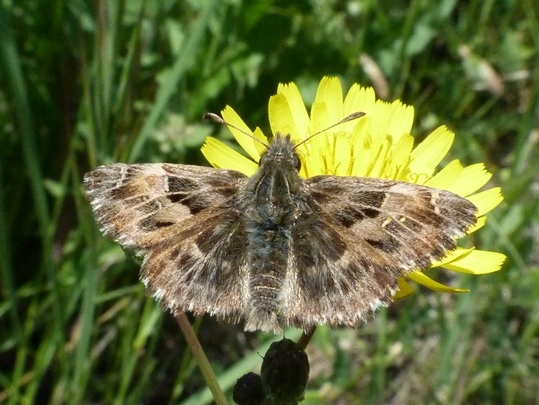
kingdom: Animalia
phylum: Arthropoda
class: Insecta
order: Lepidoptera
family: Hesperiidae
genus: Carcharodus
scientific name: Carcharodus alceae
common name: Mallow skipper
